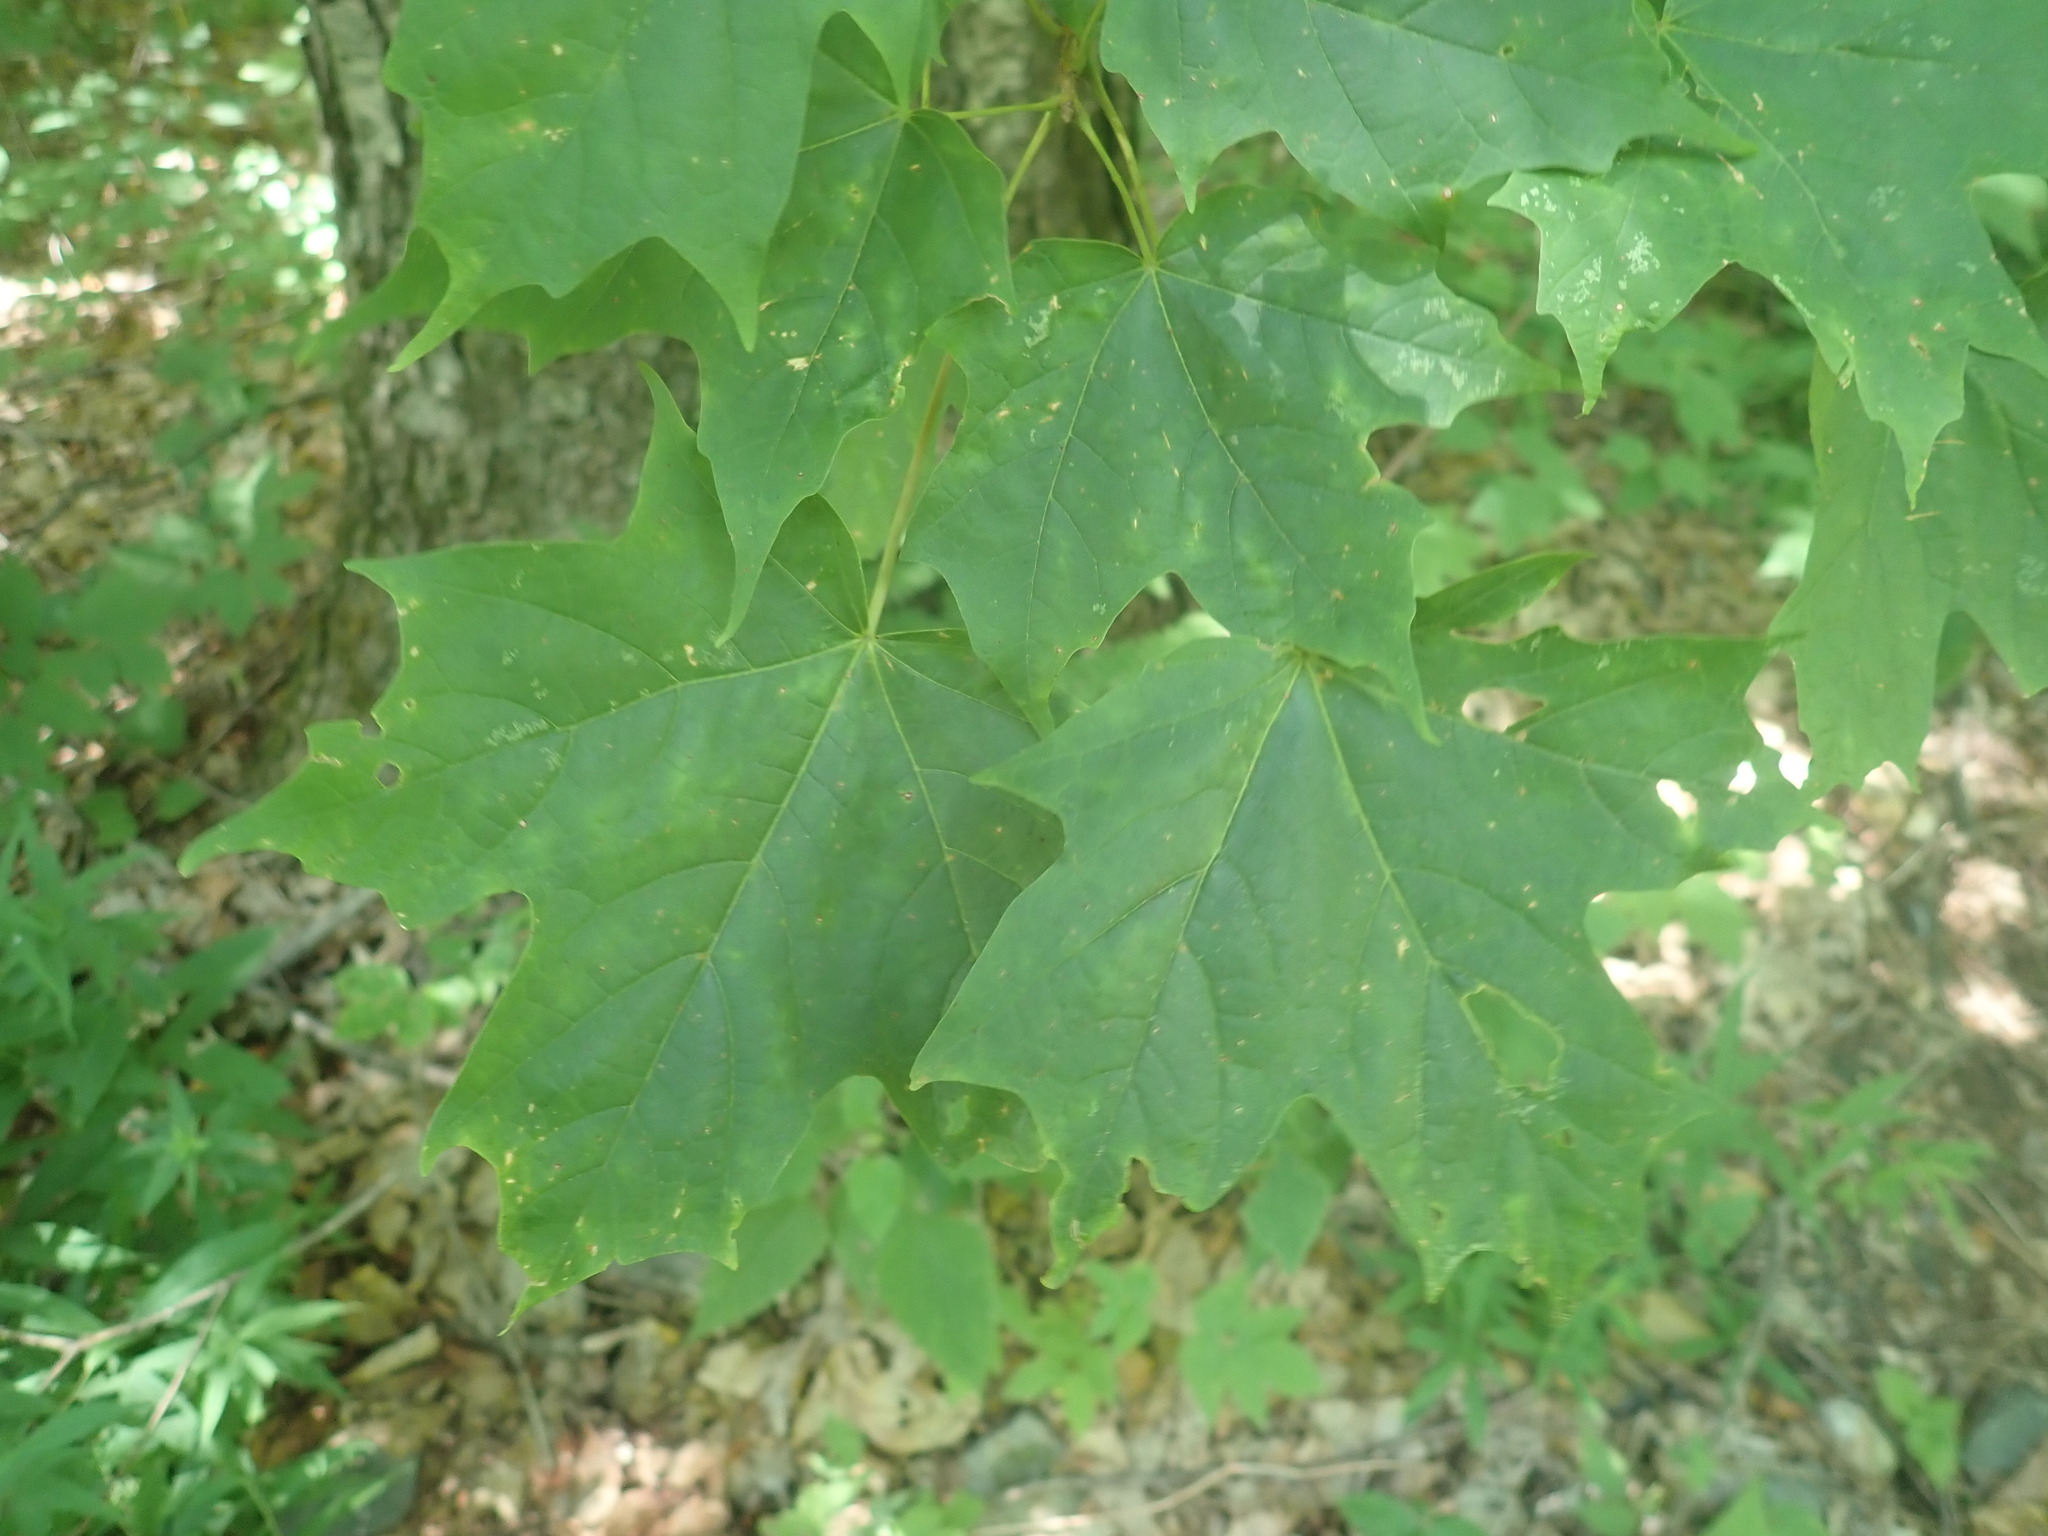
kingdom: Plantae
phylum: Tracheophyta
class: Magnoliopsida
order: Sapindales
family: Sapindaceae
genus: Acer
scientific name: Acer saccharum
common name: Sugar maple
